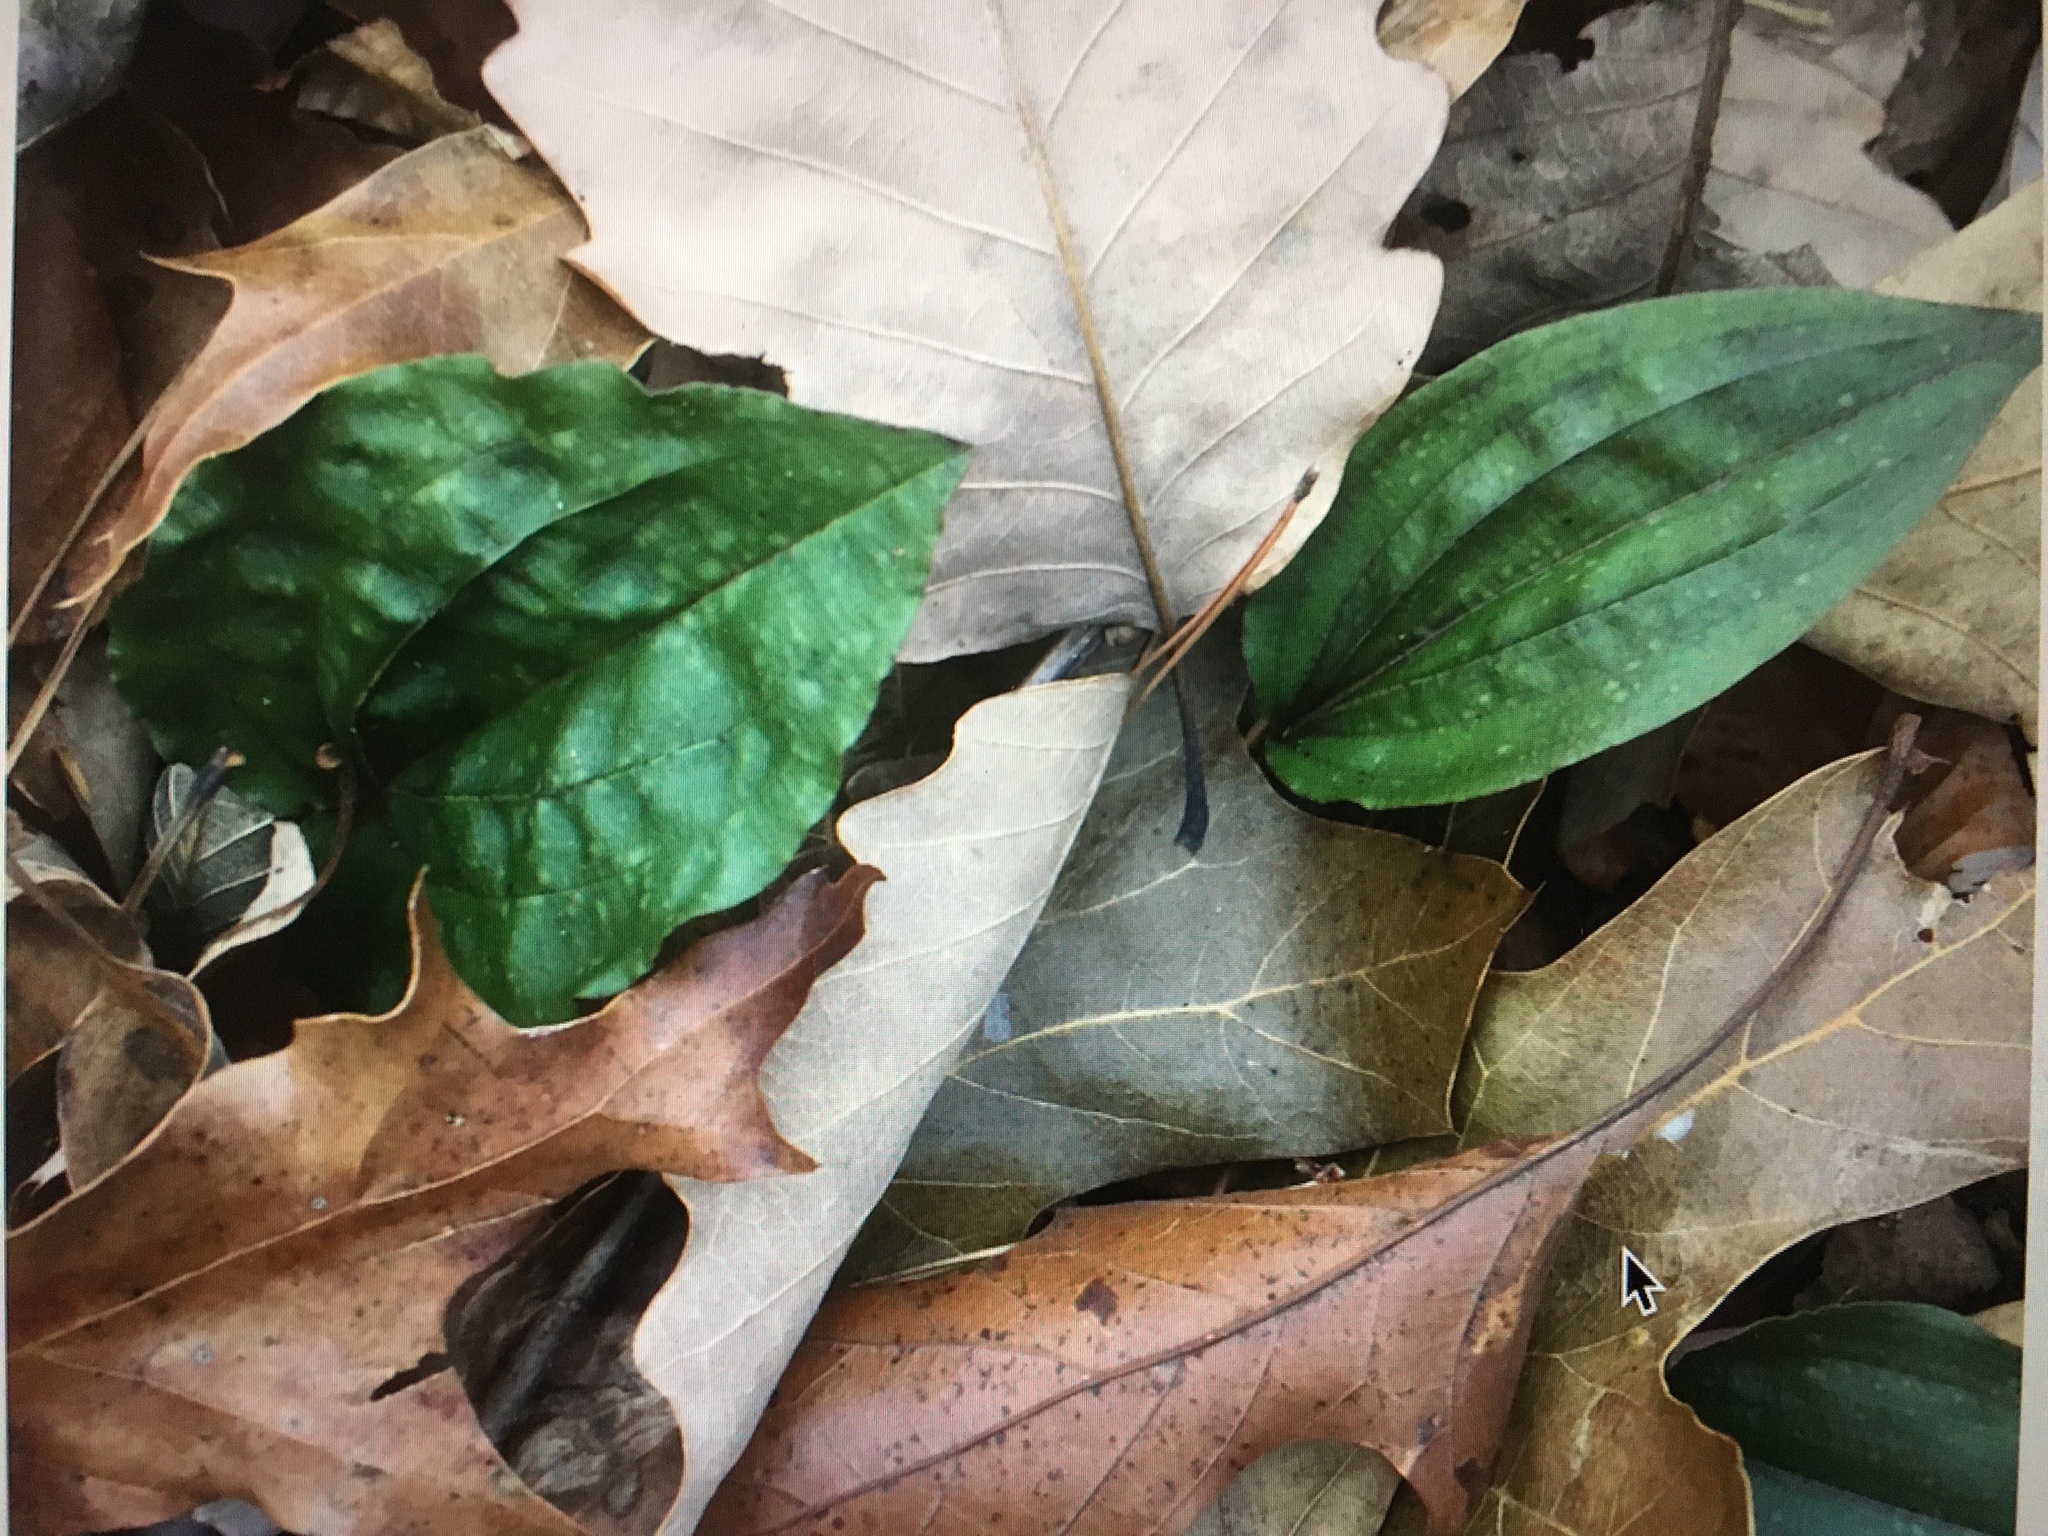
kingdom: Plantae
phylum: Tracheophyta
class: Liliopsida
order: Asparagales
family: Orchidaceae
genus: Tipularia
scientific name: Tipularia discolor
